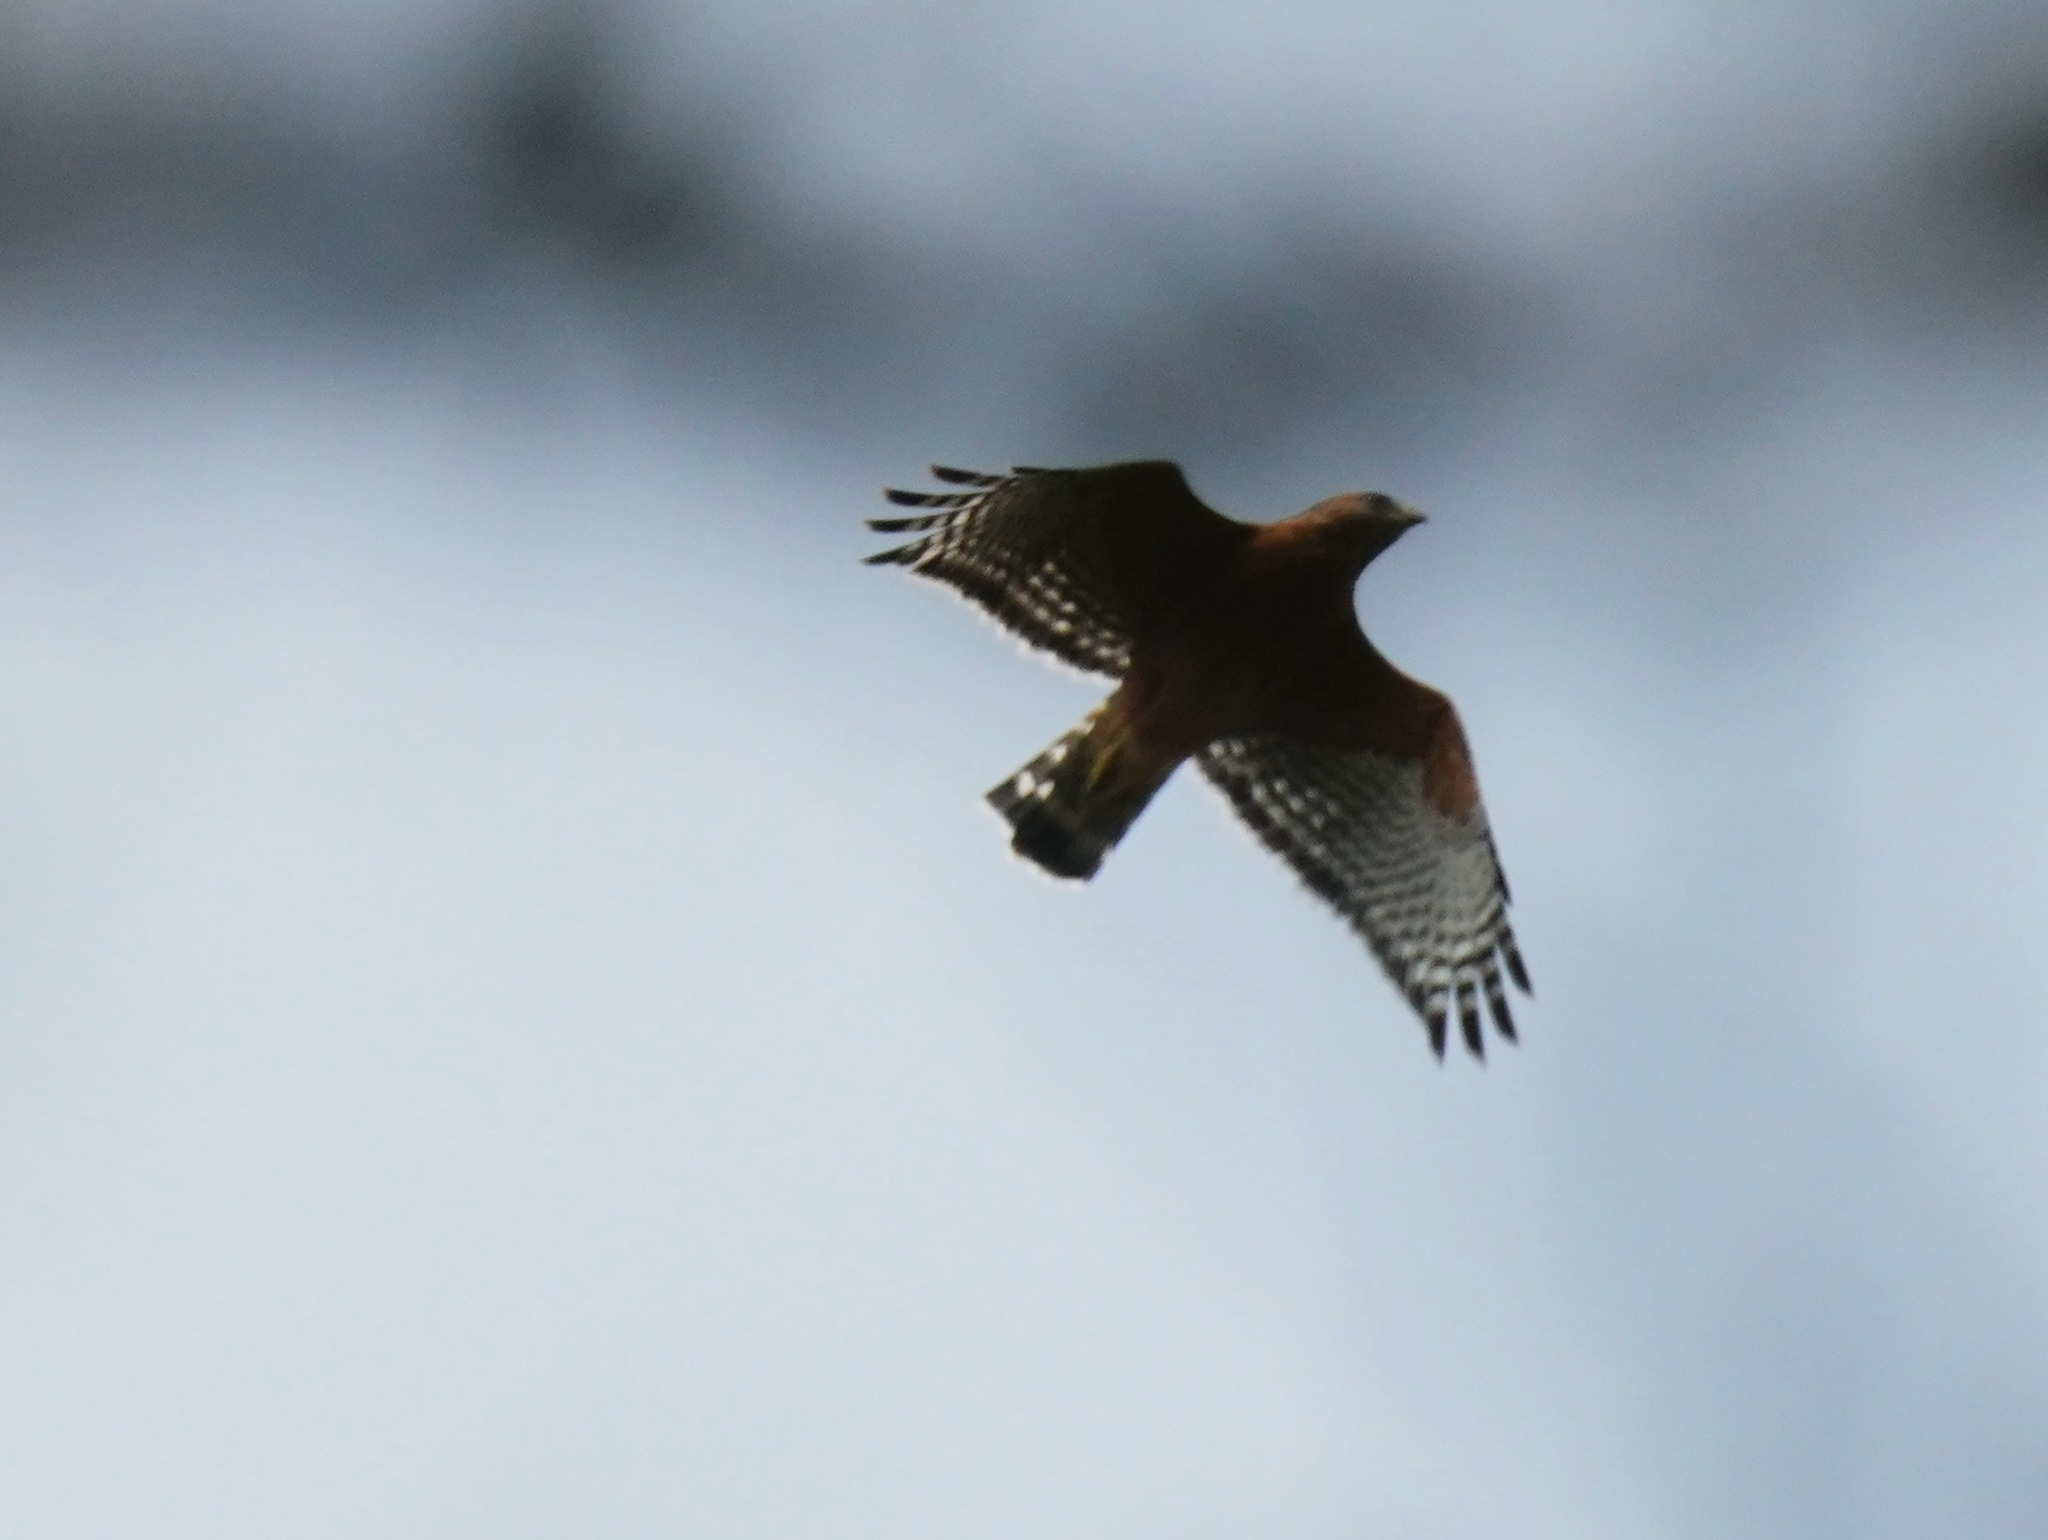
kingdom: Animalia
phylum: Chordata
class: Aves
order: Accipitriformes
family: Accipitridae
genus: Buteo
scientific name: Buteo lineatus
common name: Red-shouldered hawk
